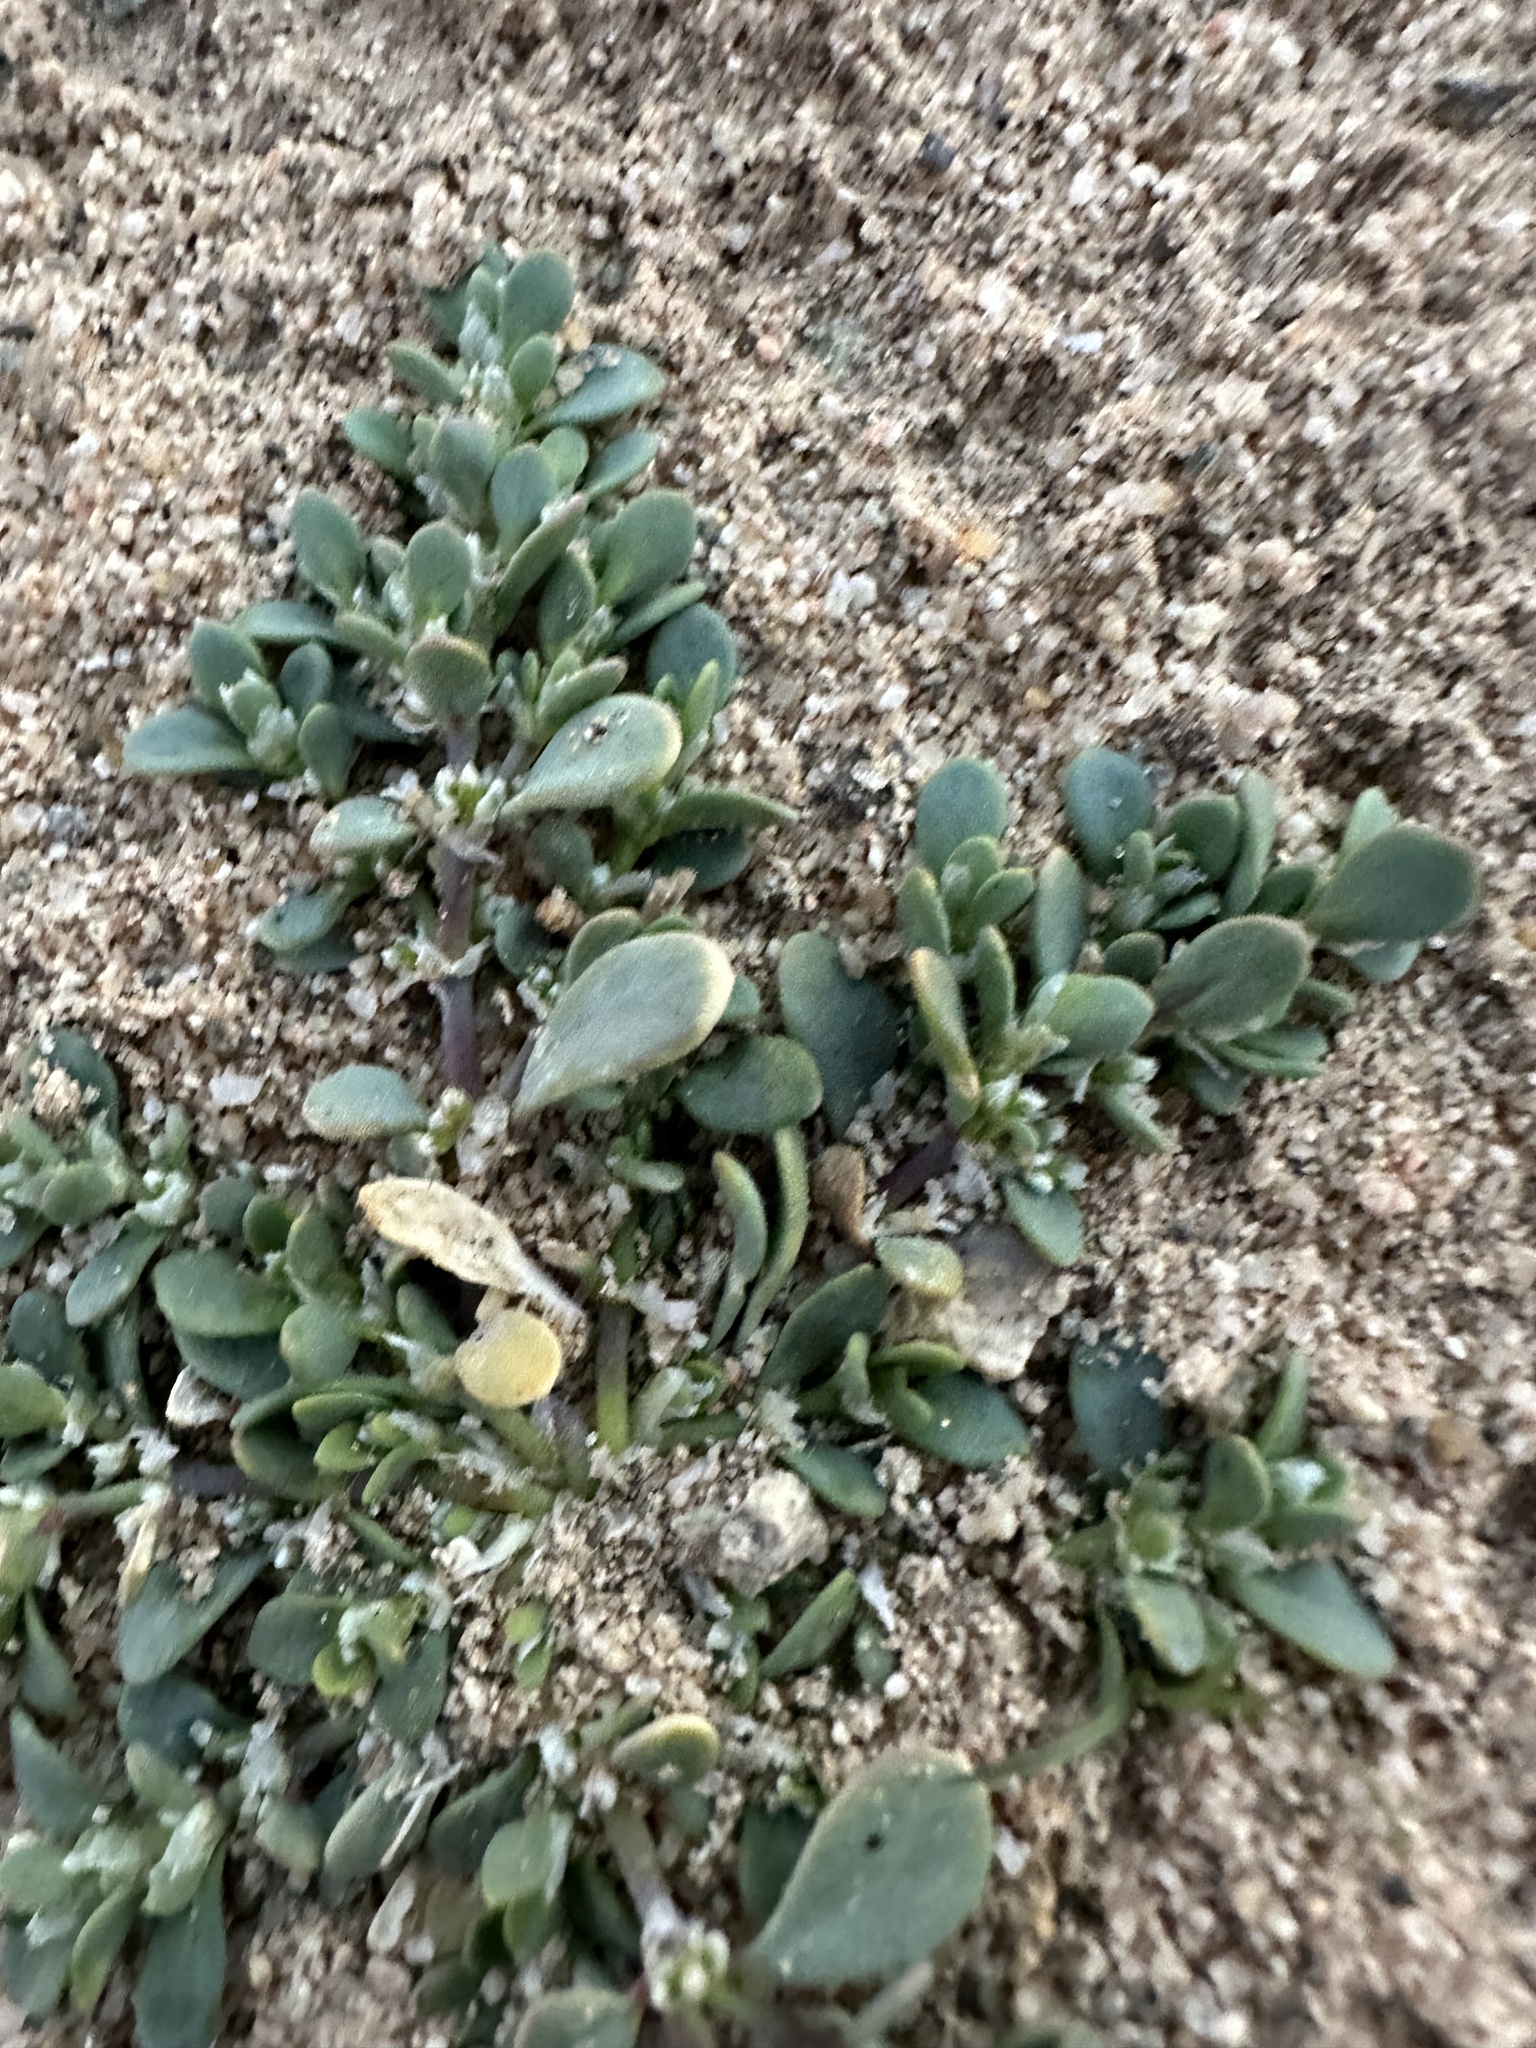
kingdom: Plantae
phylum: Tracheophyta
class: Magnoliopsida
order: Caryophyllales
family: Caryophyllaceae
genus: Achyronychia
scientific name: Achyronychia cooperi
